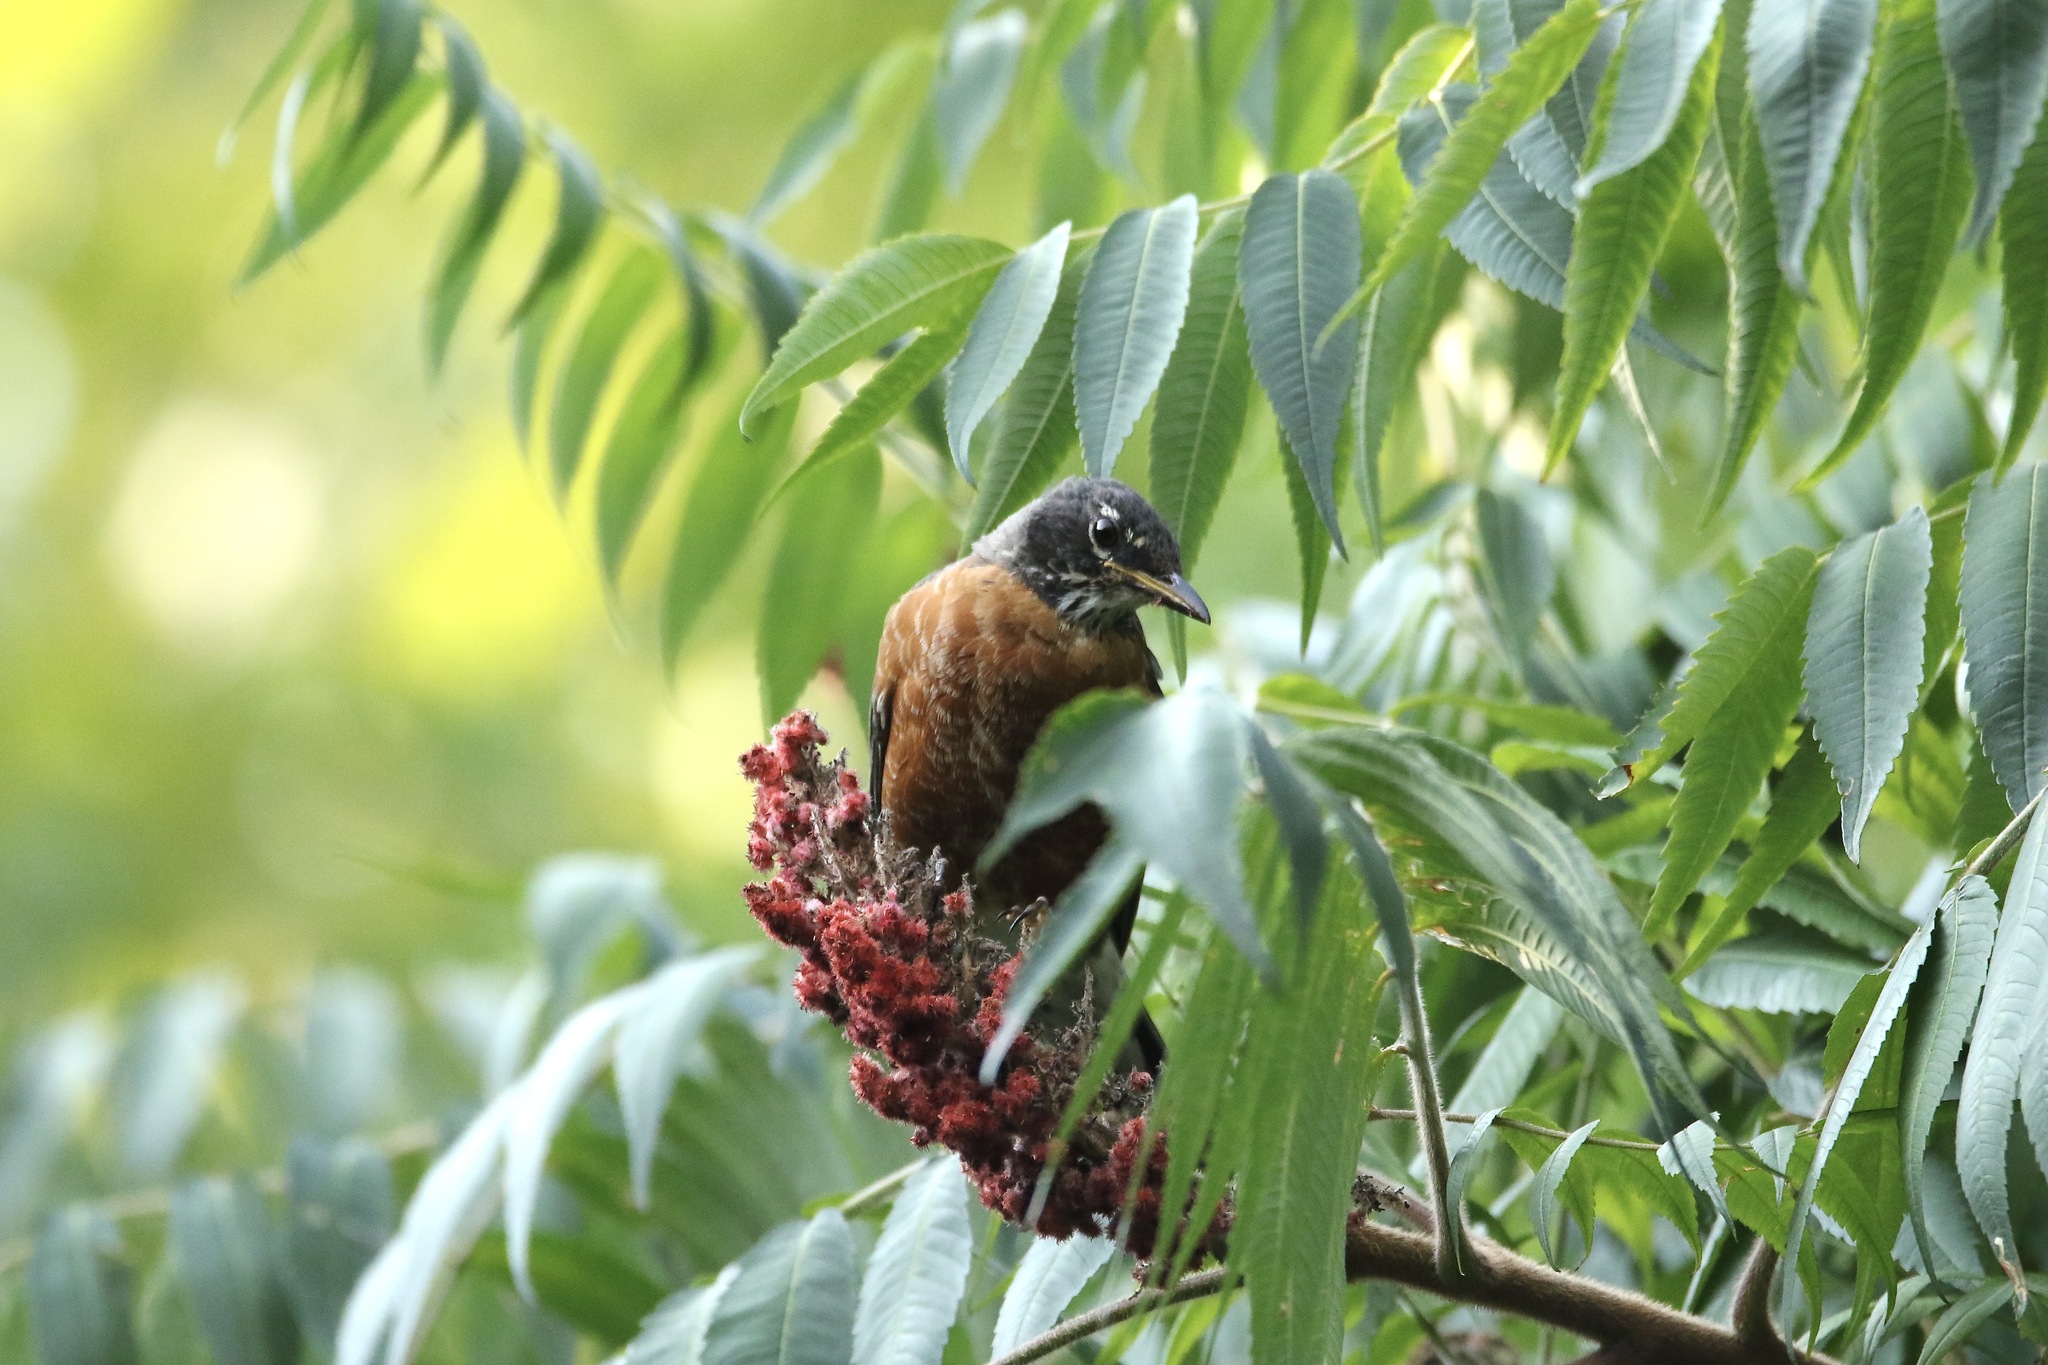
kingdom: Animalia
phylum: Chordata
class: Aves
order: Passeriformes
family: Turdidae
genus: Turdus
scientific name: Turdus migratorius
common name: American robin
